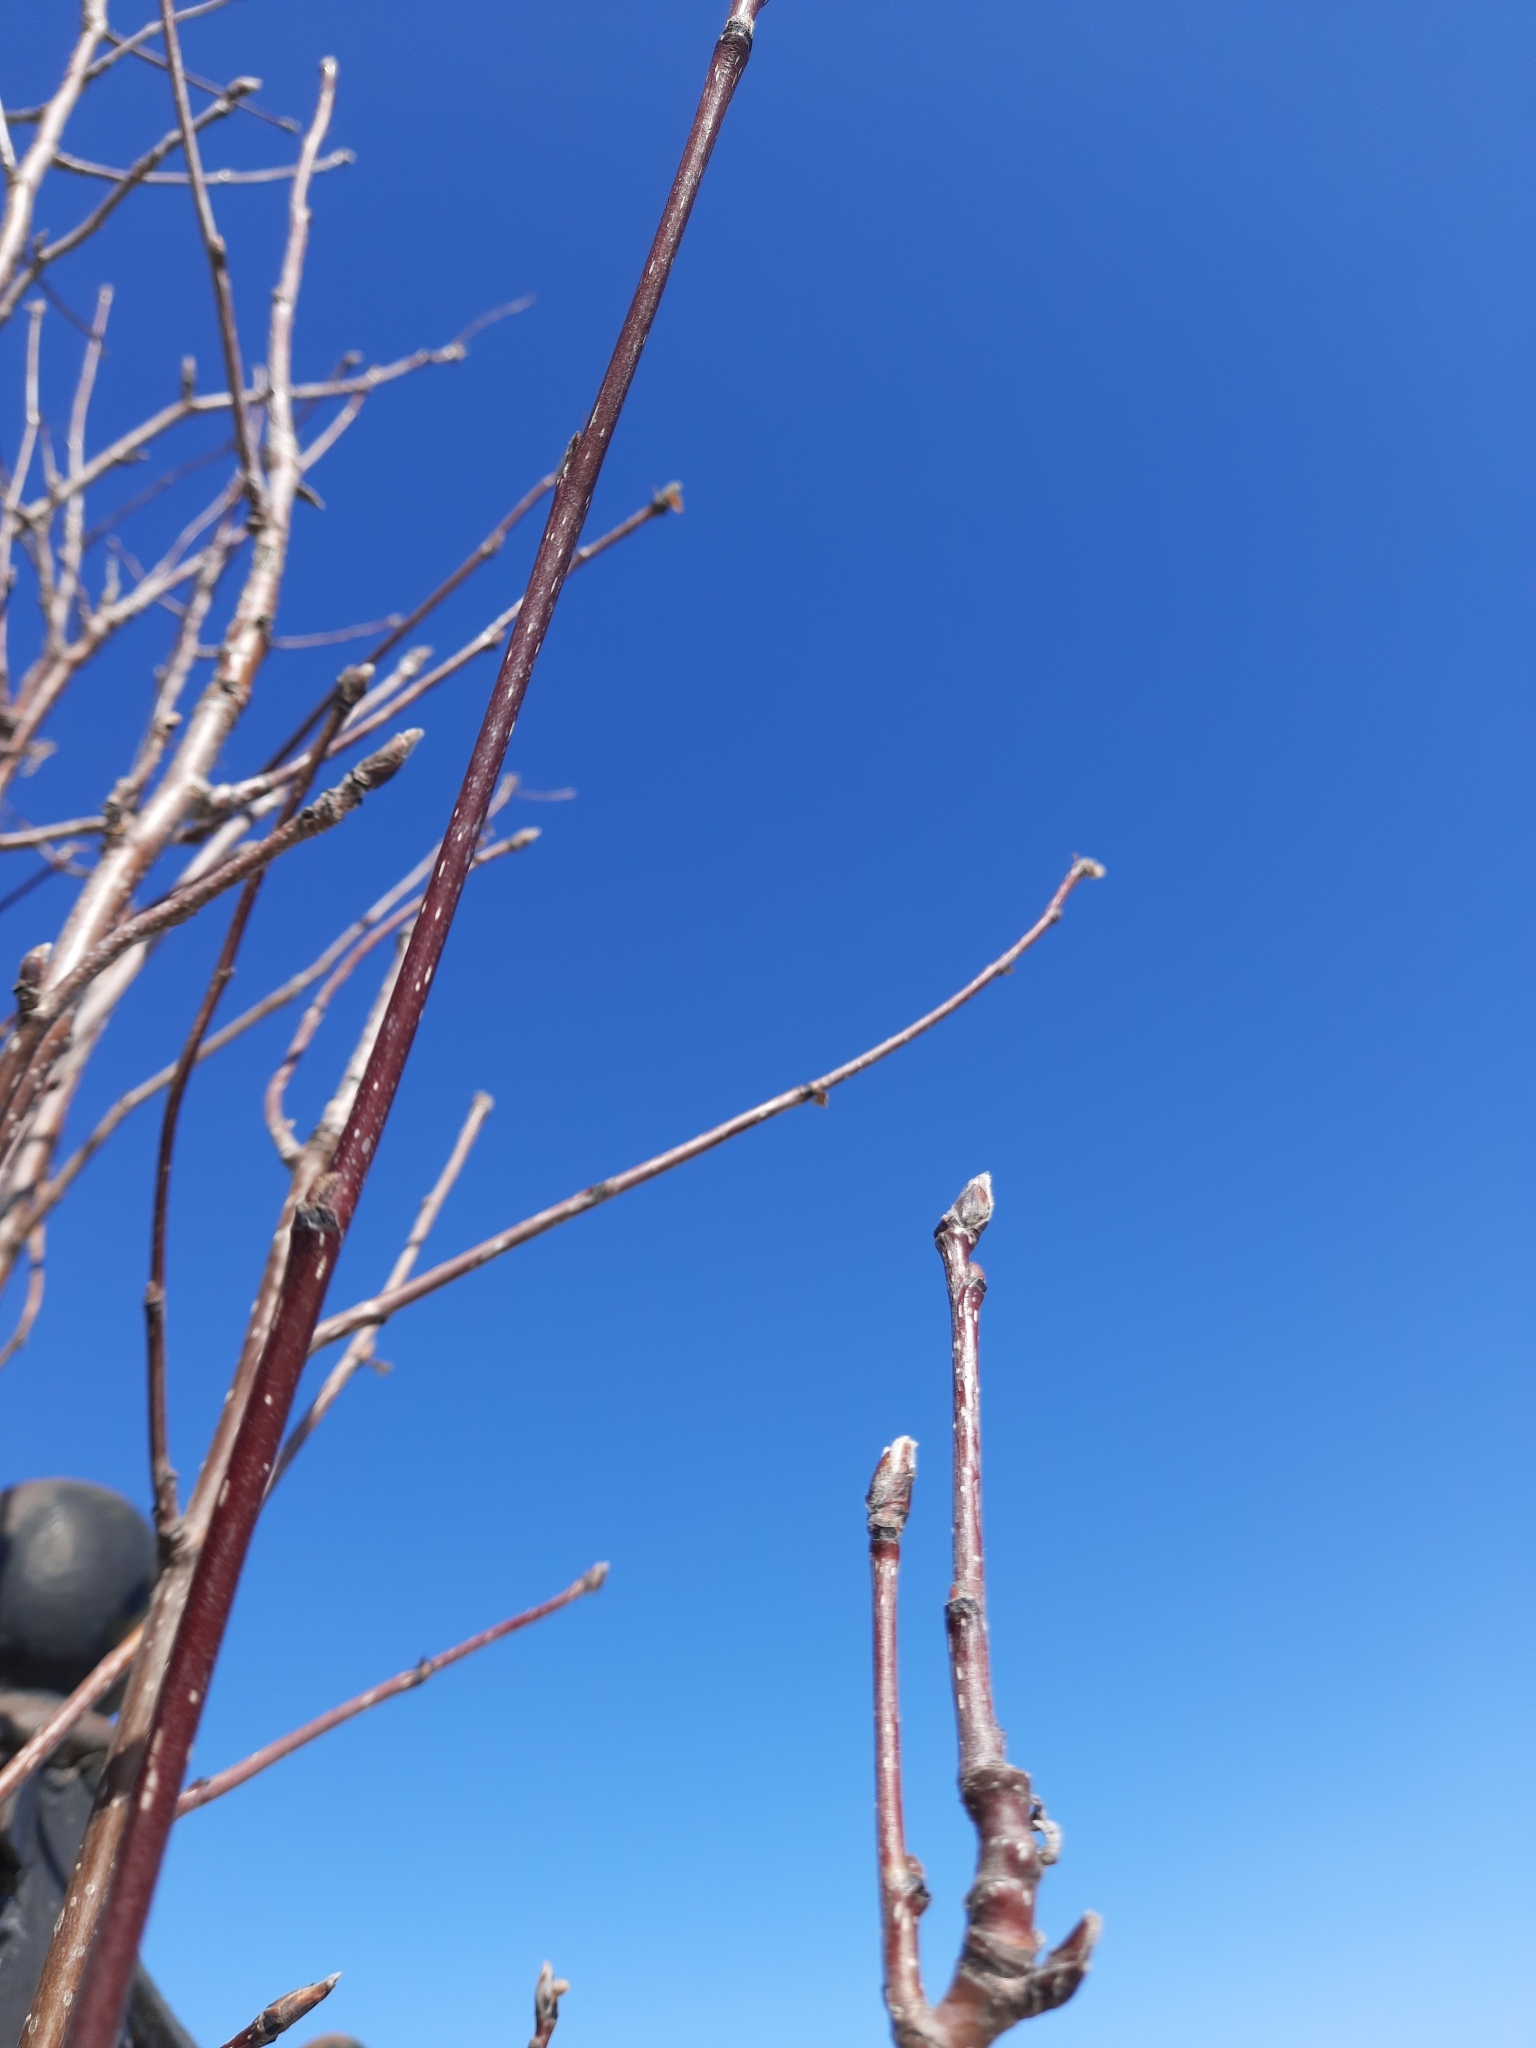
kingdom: Plantae
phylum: Tracheophyta
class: Magnoliopsida
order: Rosales
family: Rosaceae
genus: Sorbus
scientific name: Sorbus aucuparia
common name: Rowan
